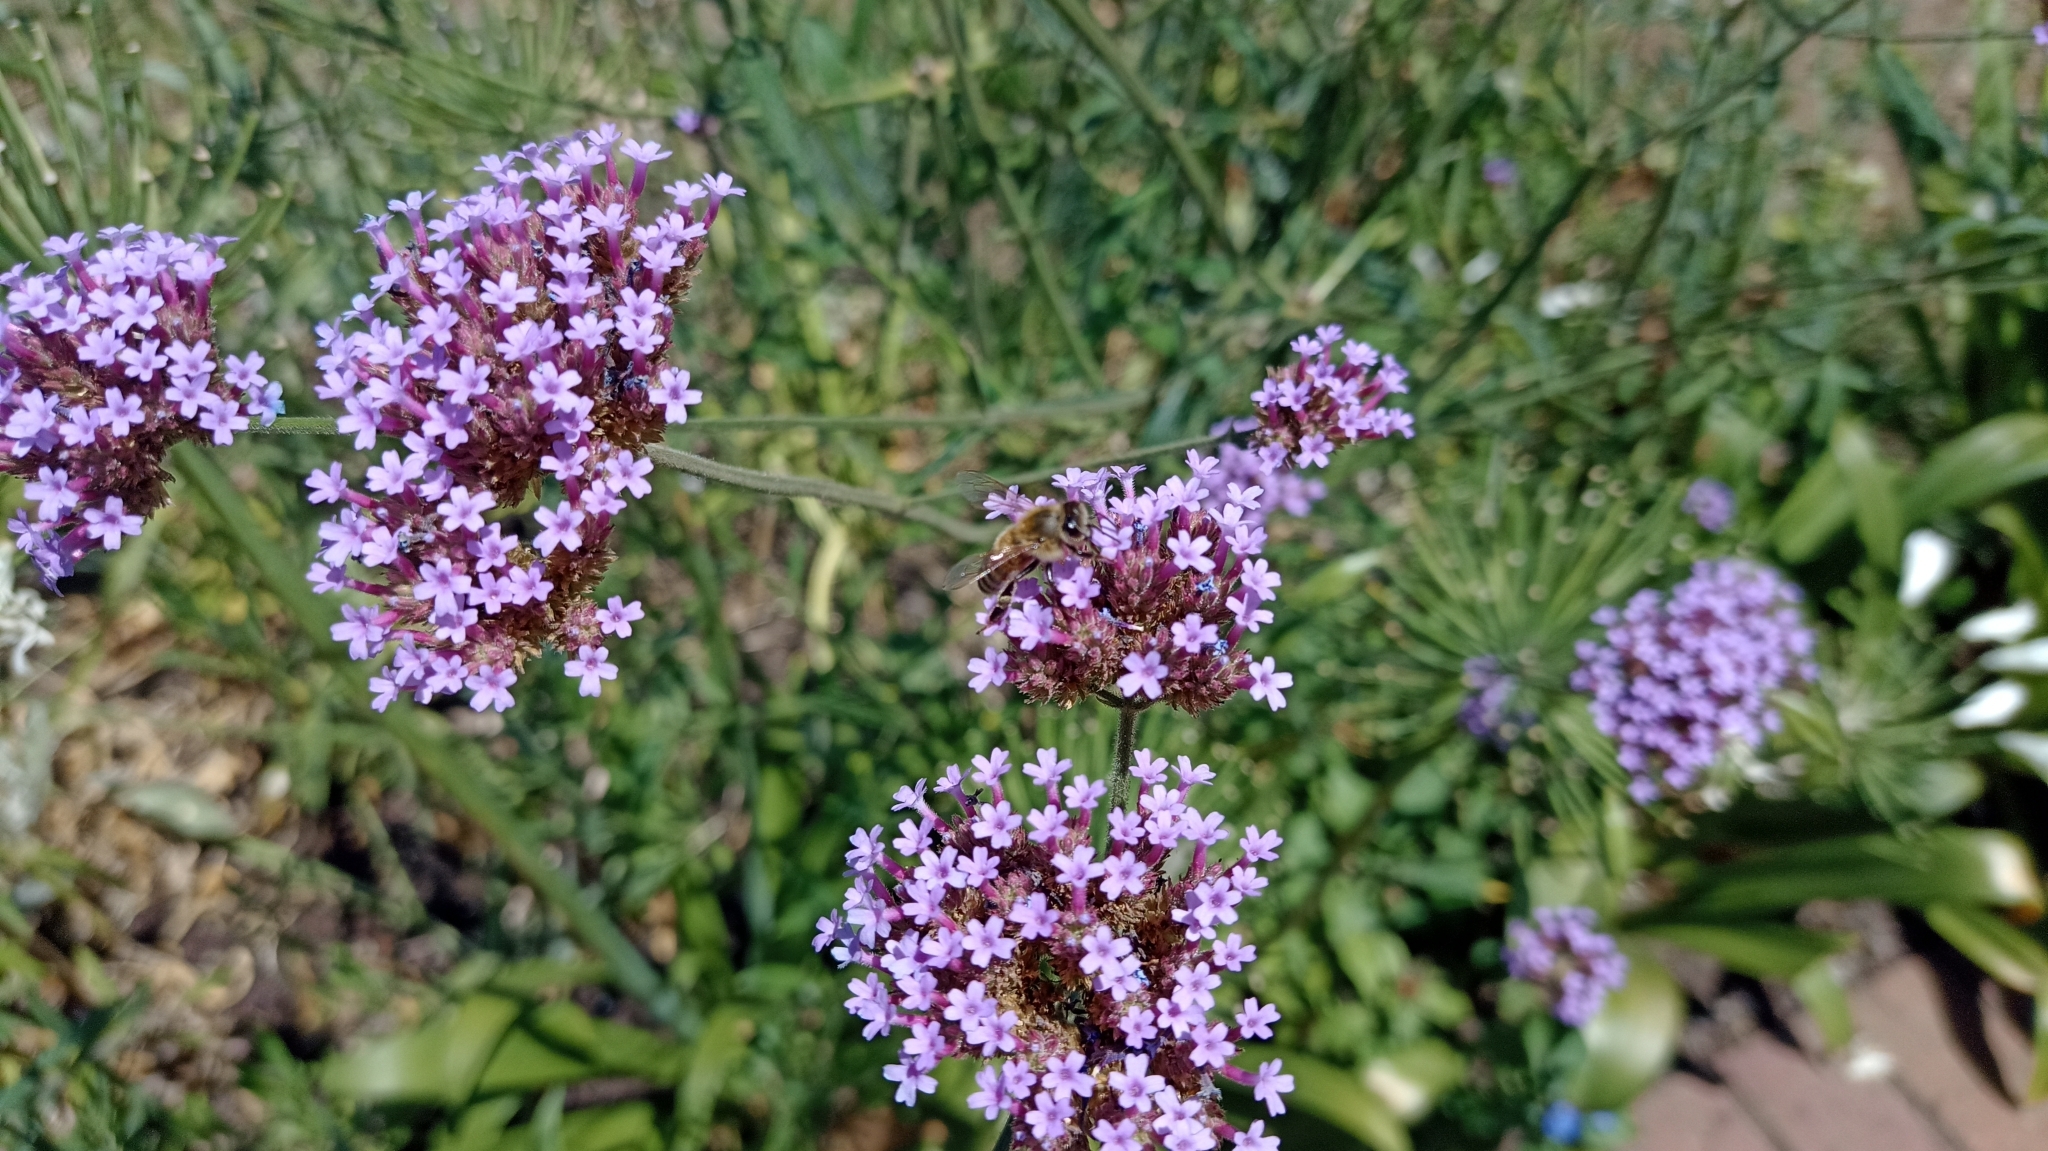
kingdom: Animalia
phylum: Arthropoda
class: Insecta
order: Hymenoptera
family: Apidae
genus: Apis
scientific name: Apis mellifera
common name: Honey bee
